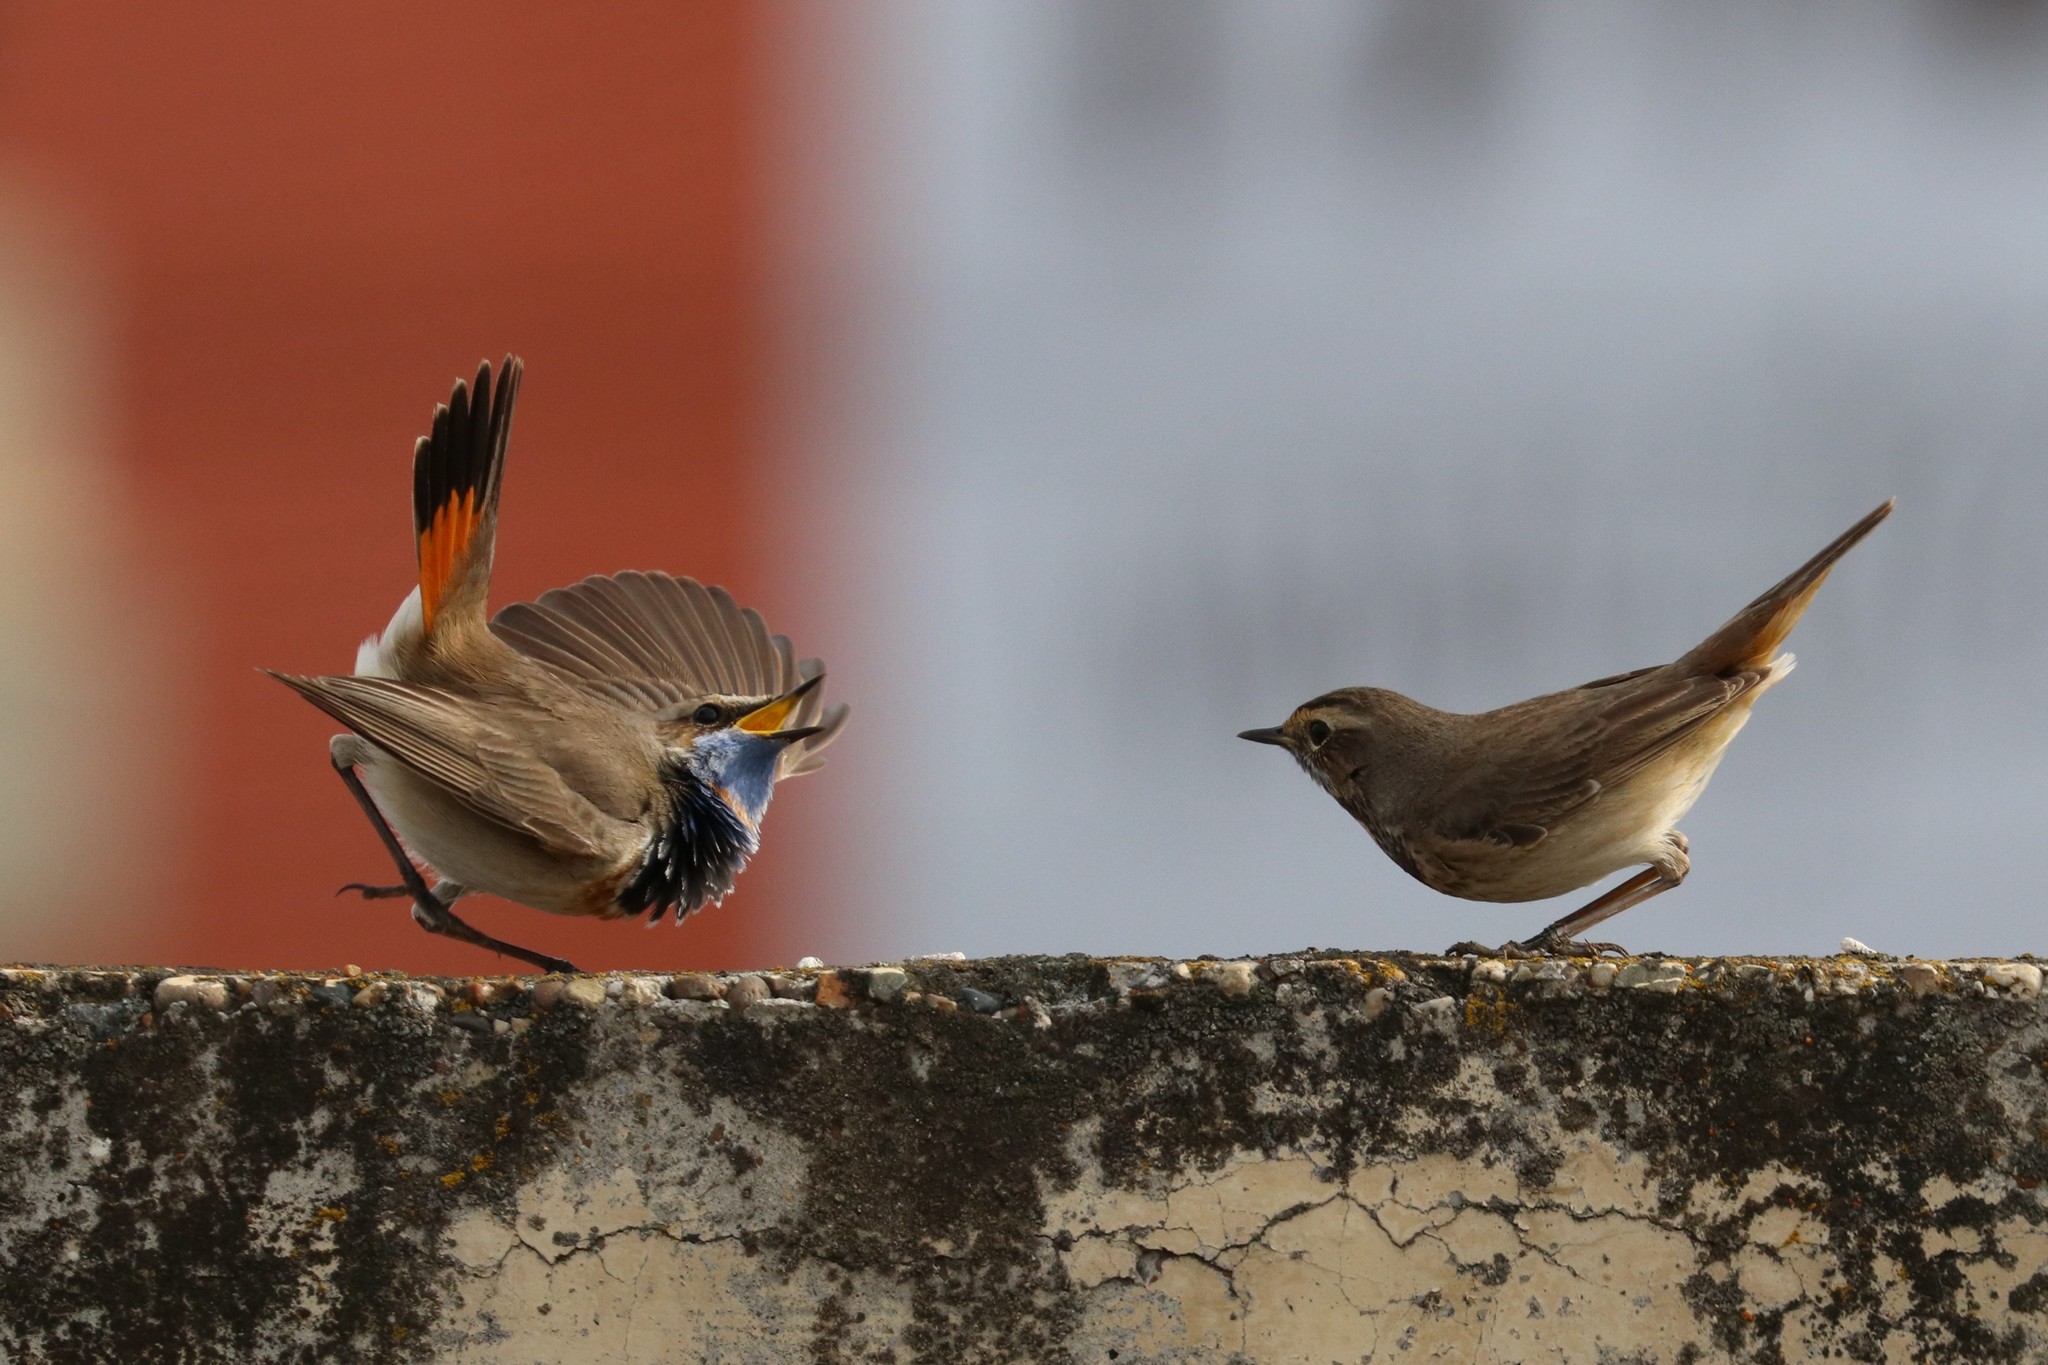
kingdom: Animalia
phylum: Chordata
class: Aves
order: Passeriformes
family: Muscicapidae
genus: Luscinia
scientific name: Luscinia svecica
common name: Bluethroat
